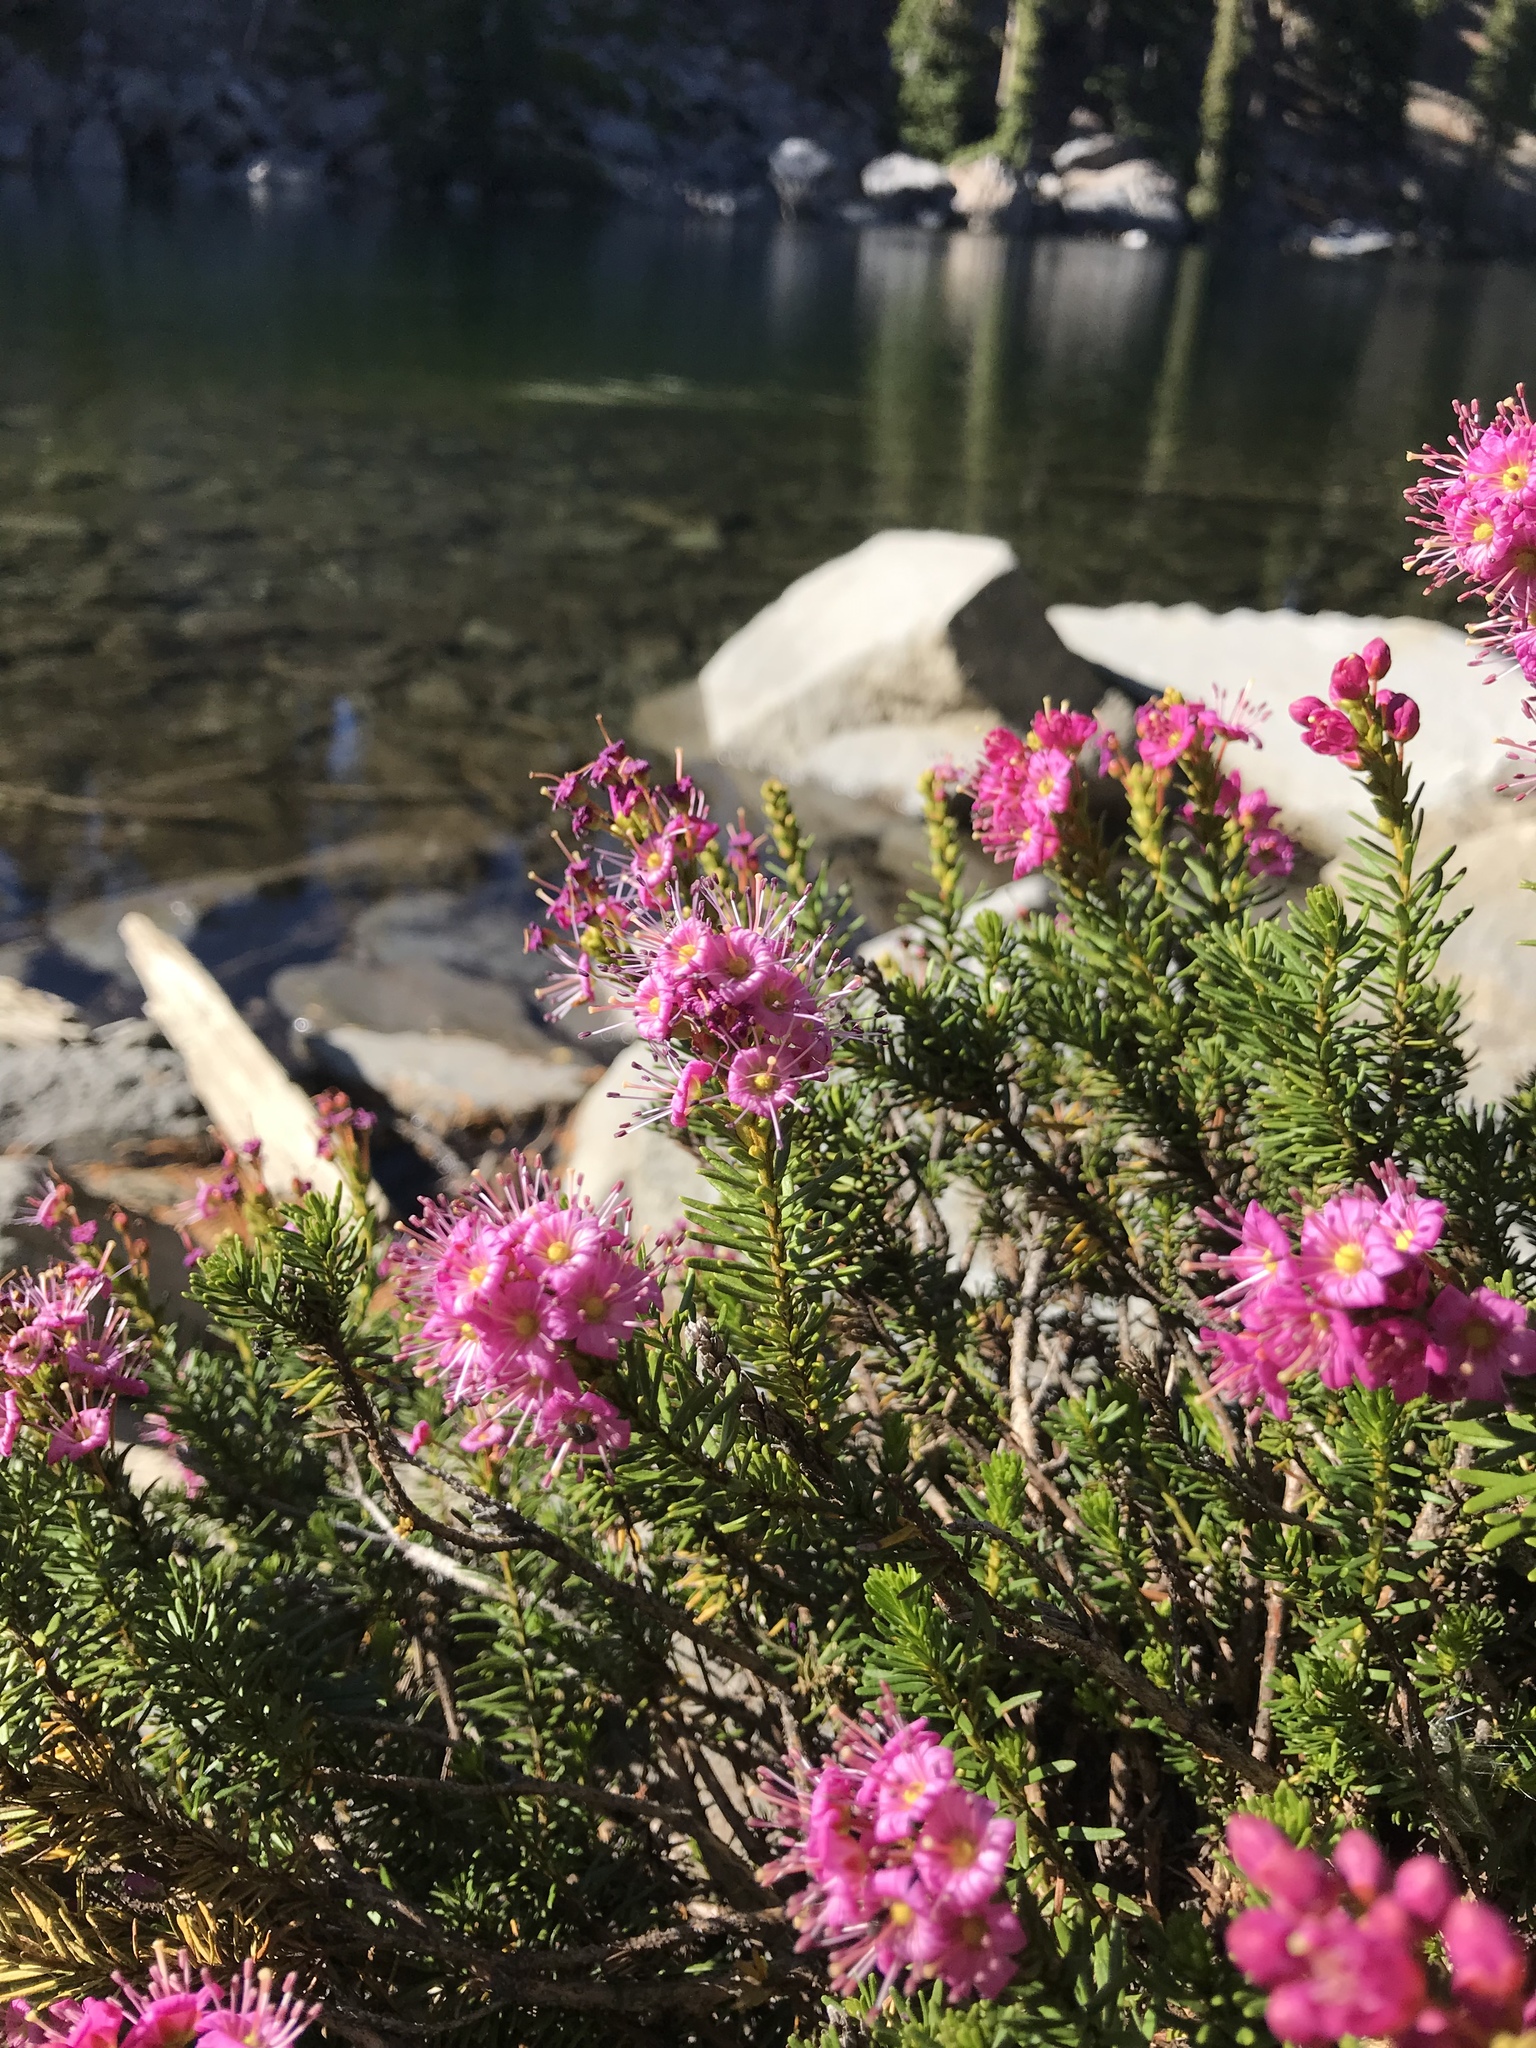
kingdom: Plantae
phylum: Tracheophyta
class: Magnoliopsida
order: Ericales
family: Ericaceae
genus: Phyllodoce
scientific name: Phyllodoce breweri
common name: Brewer's mountain-heather
